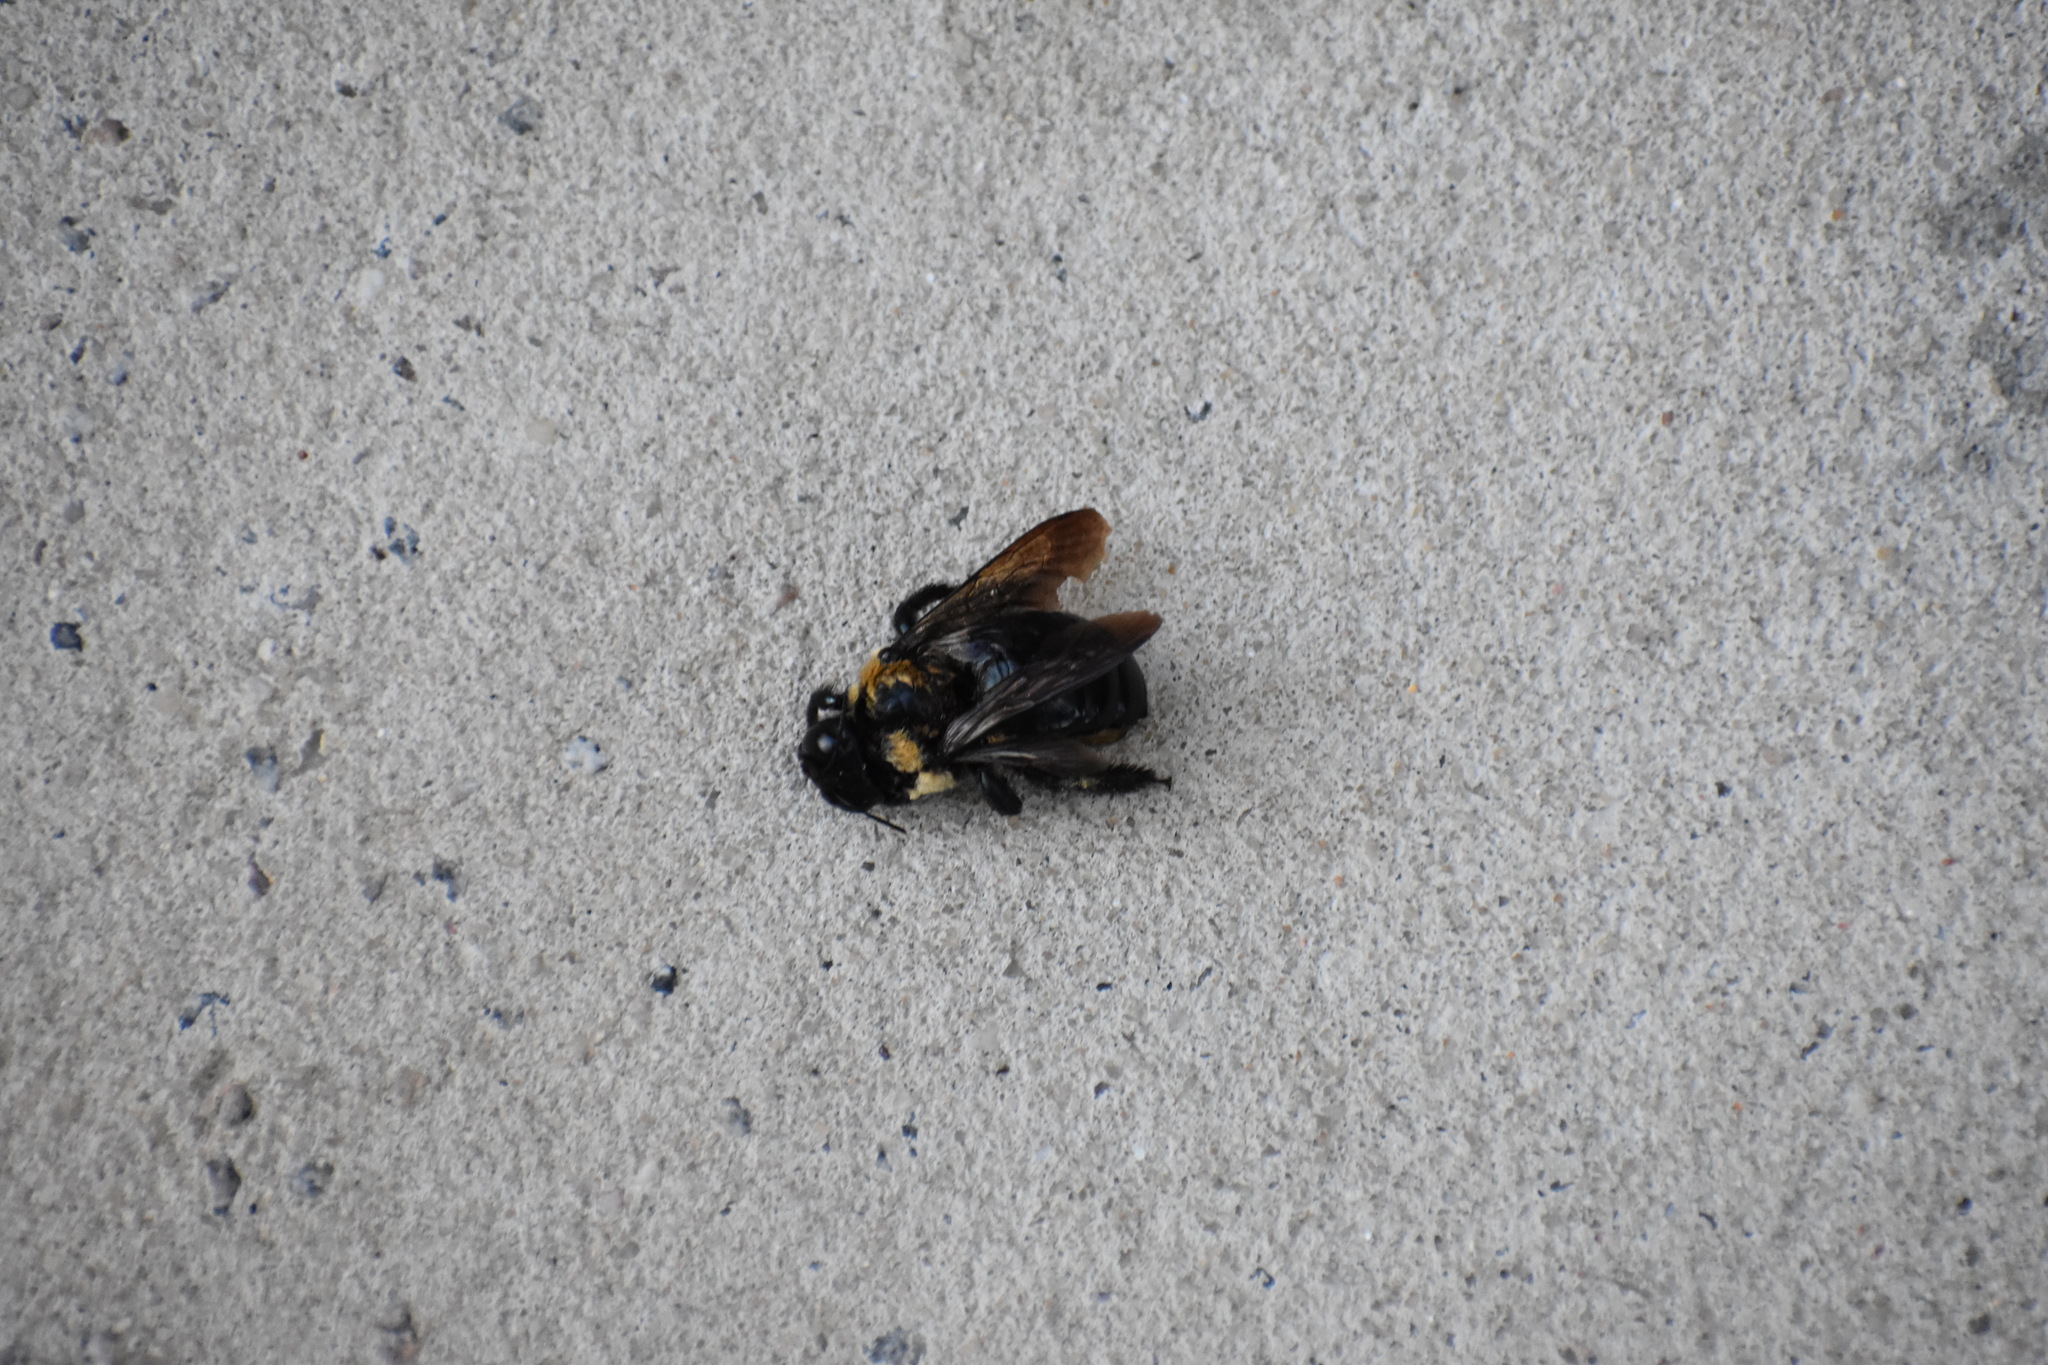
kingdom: Animalia
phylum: Arthropoda
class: Insecta
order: Hymenoptera
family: Apidae
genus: Xylocopa
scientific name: Xylocopa virginica
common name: Carpenter bee
